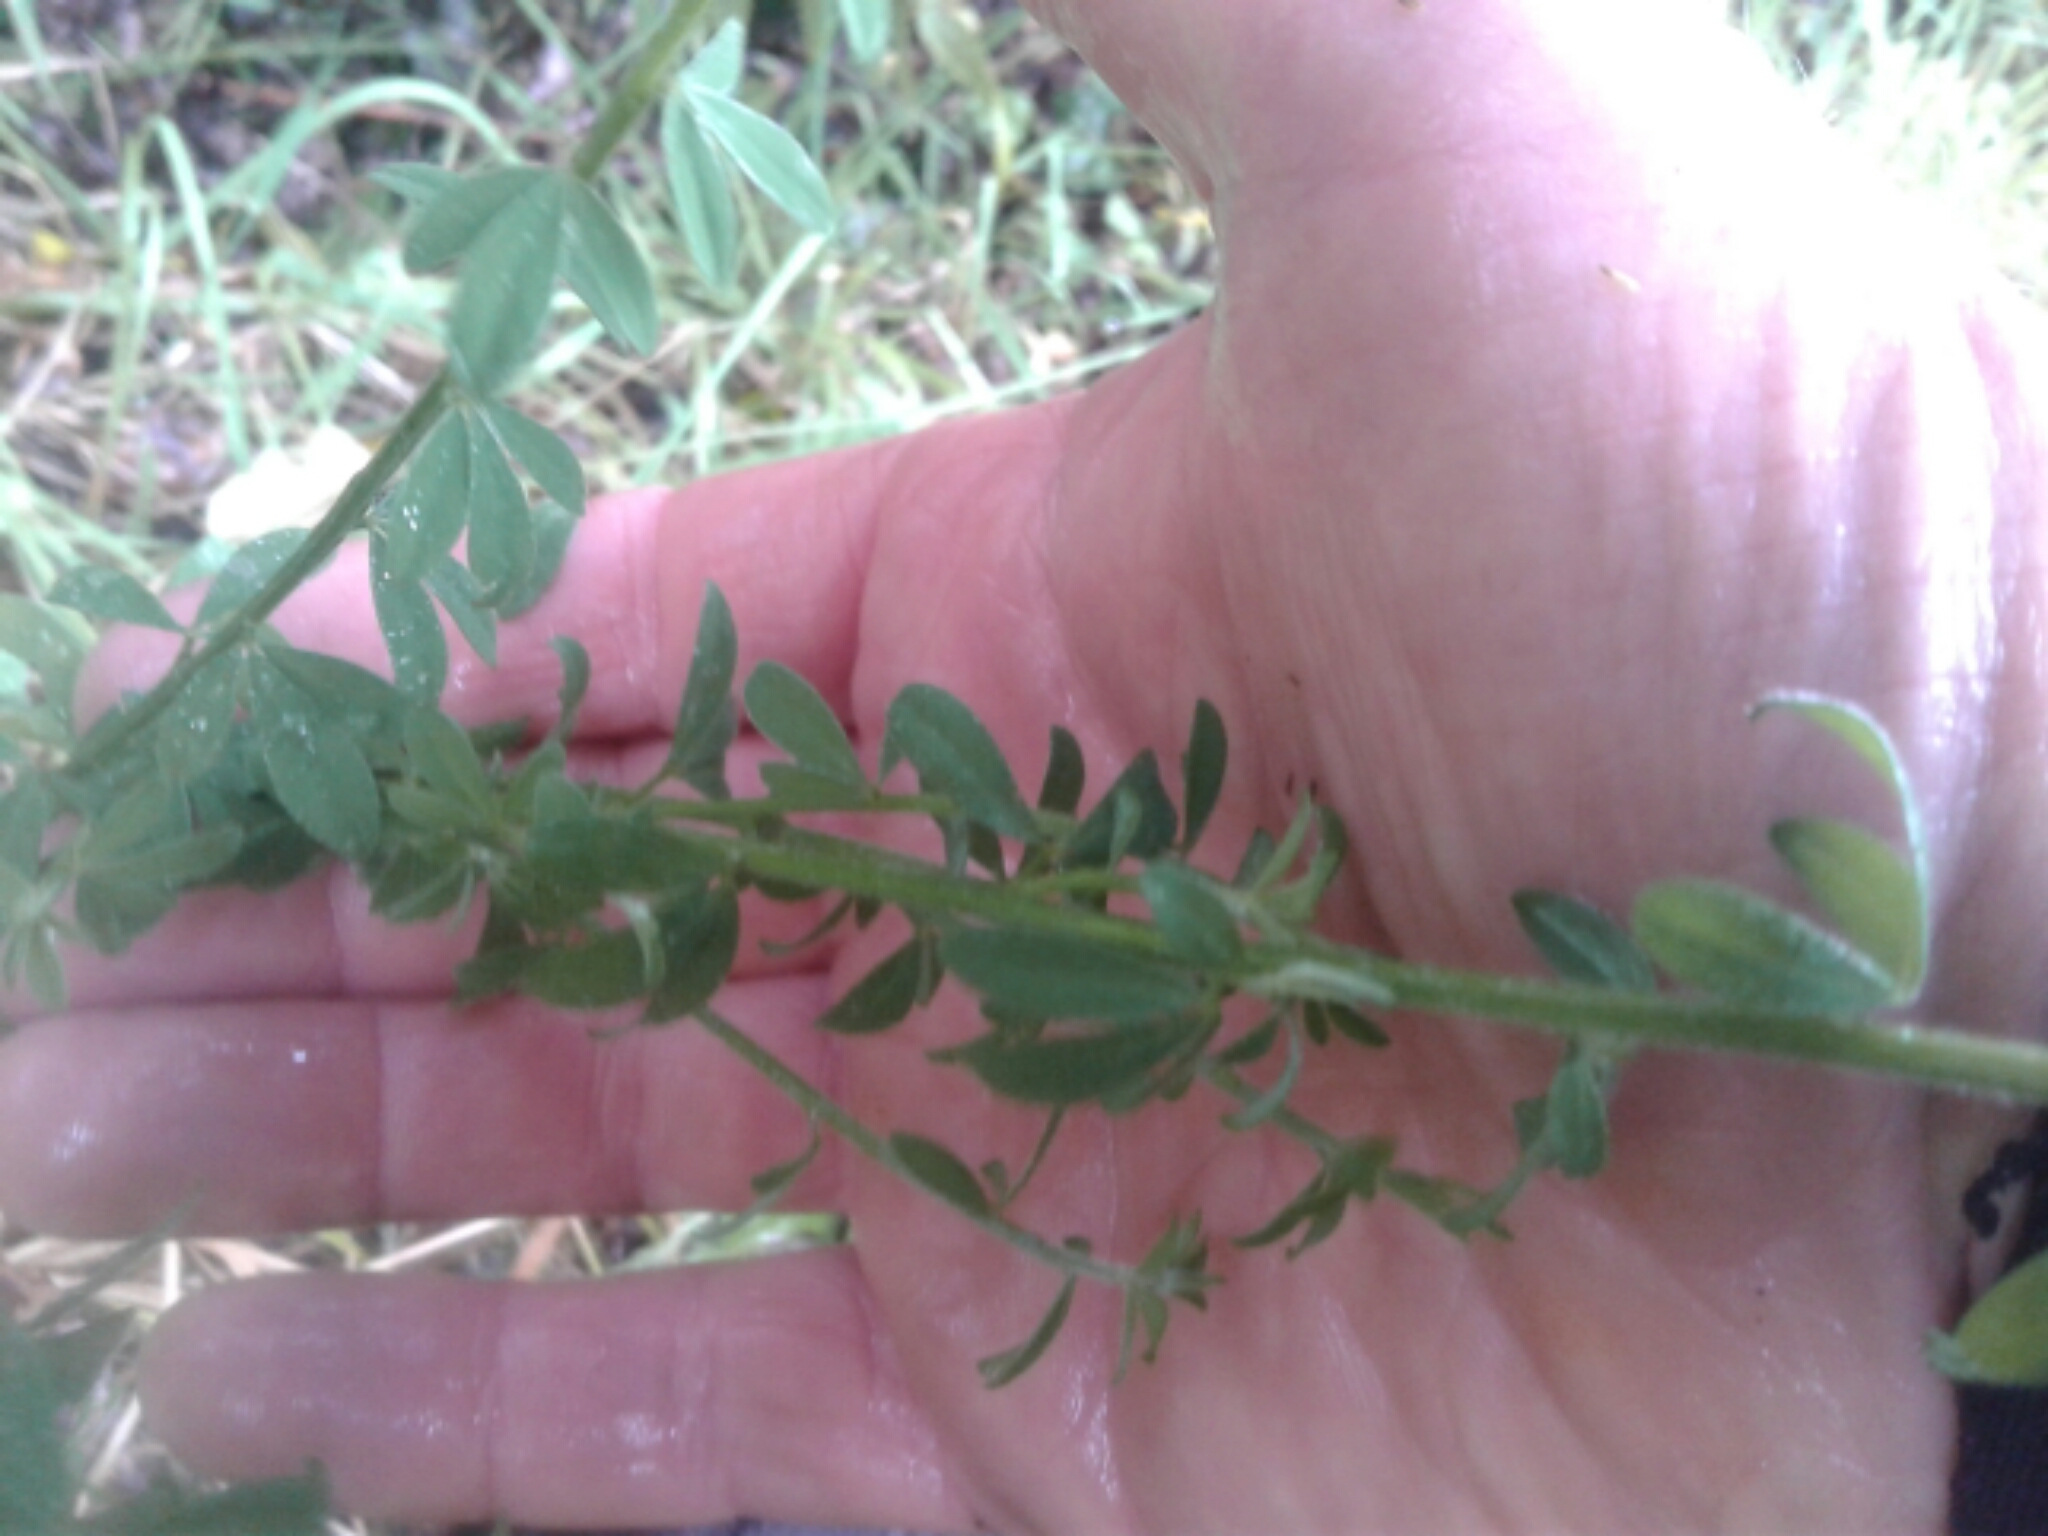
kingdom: Plantae
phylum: Tracheophyta
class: Magnoliopsida
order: Fabales
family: Fabaceae
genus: Cytisus
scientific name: Cytisus scoparius
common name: Scotch broom
